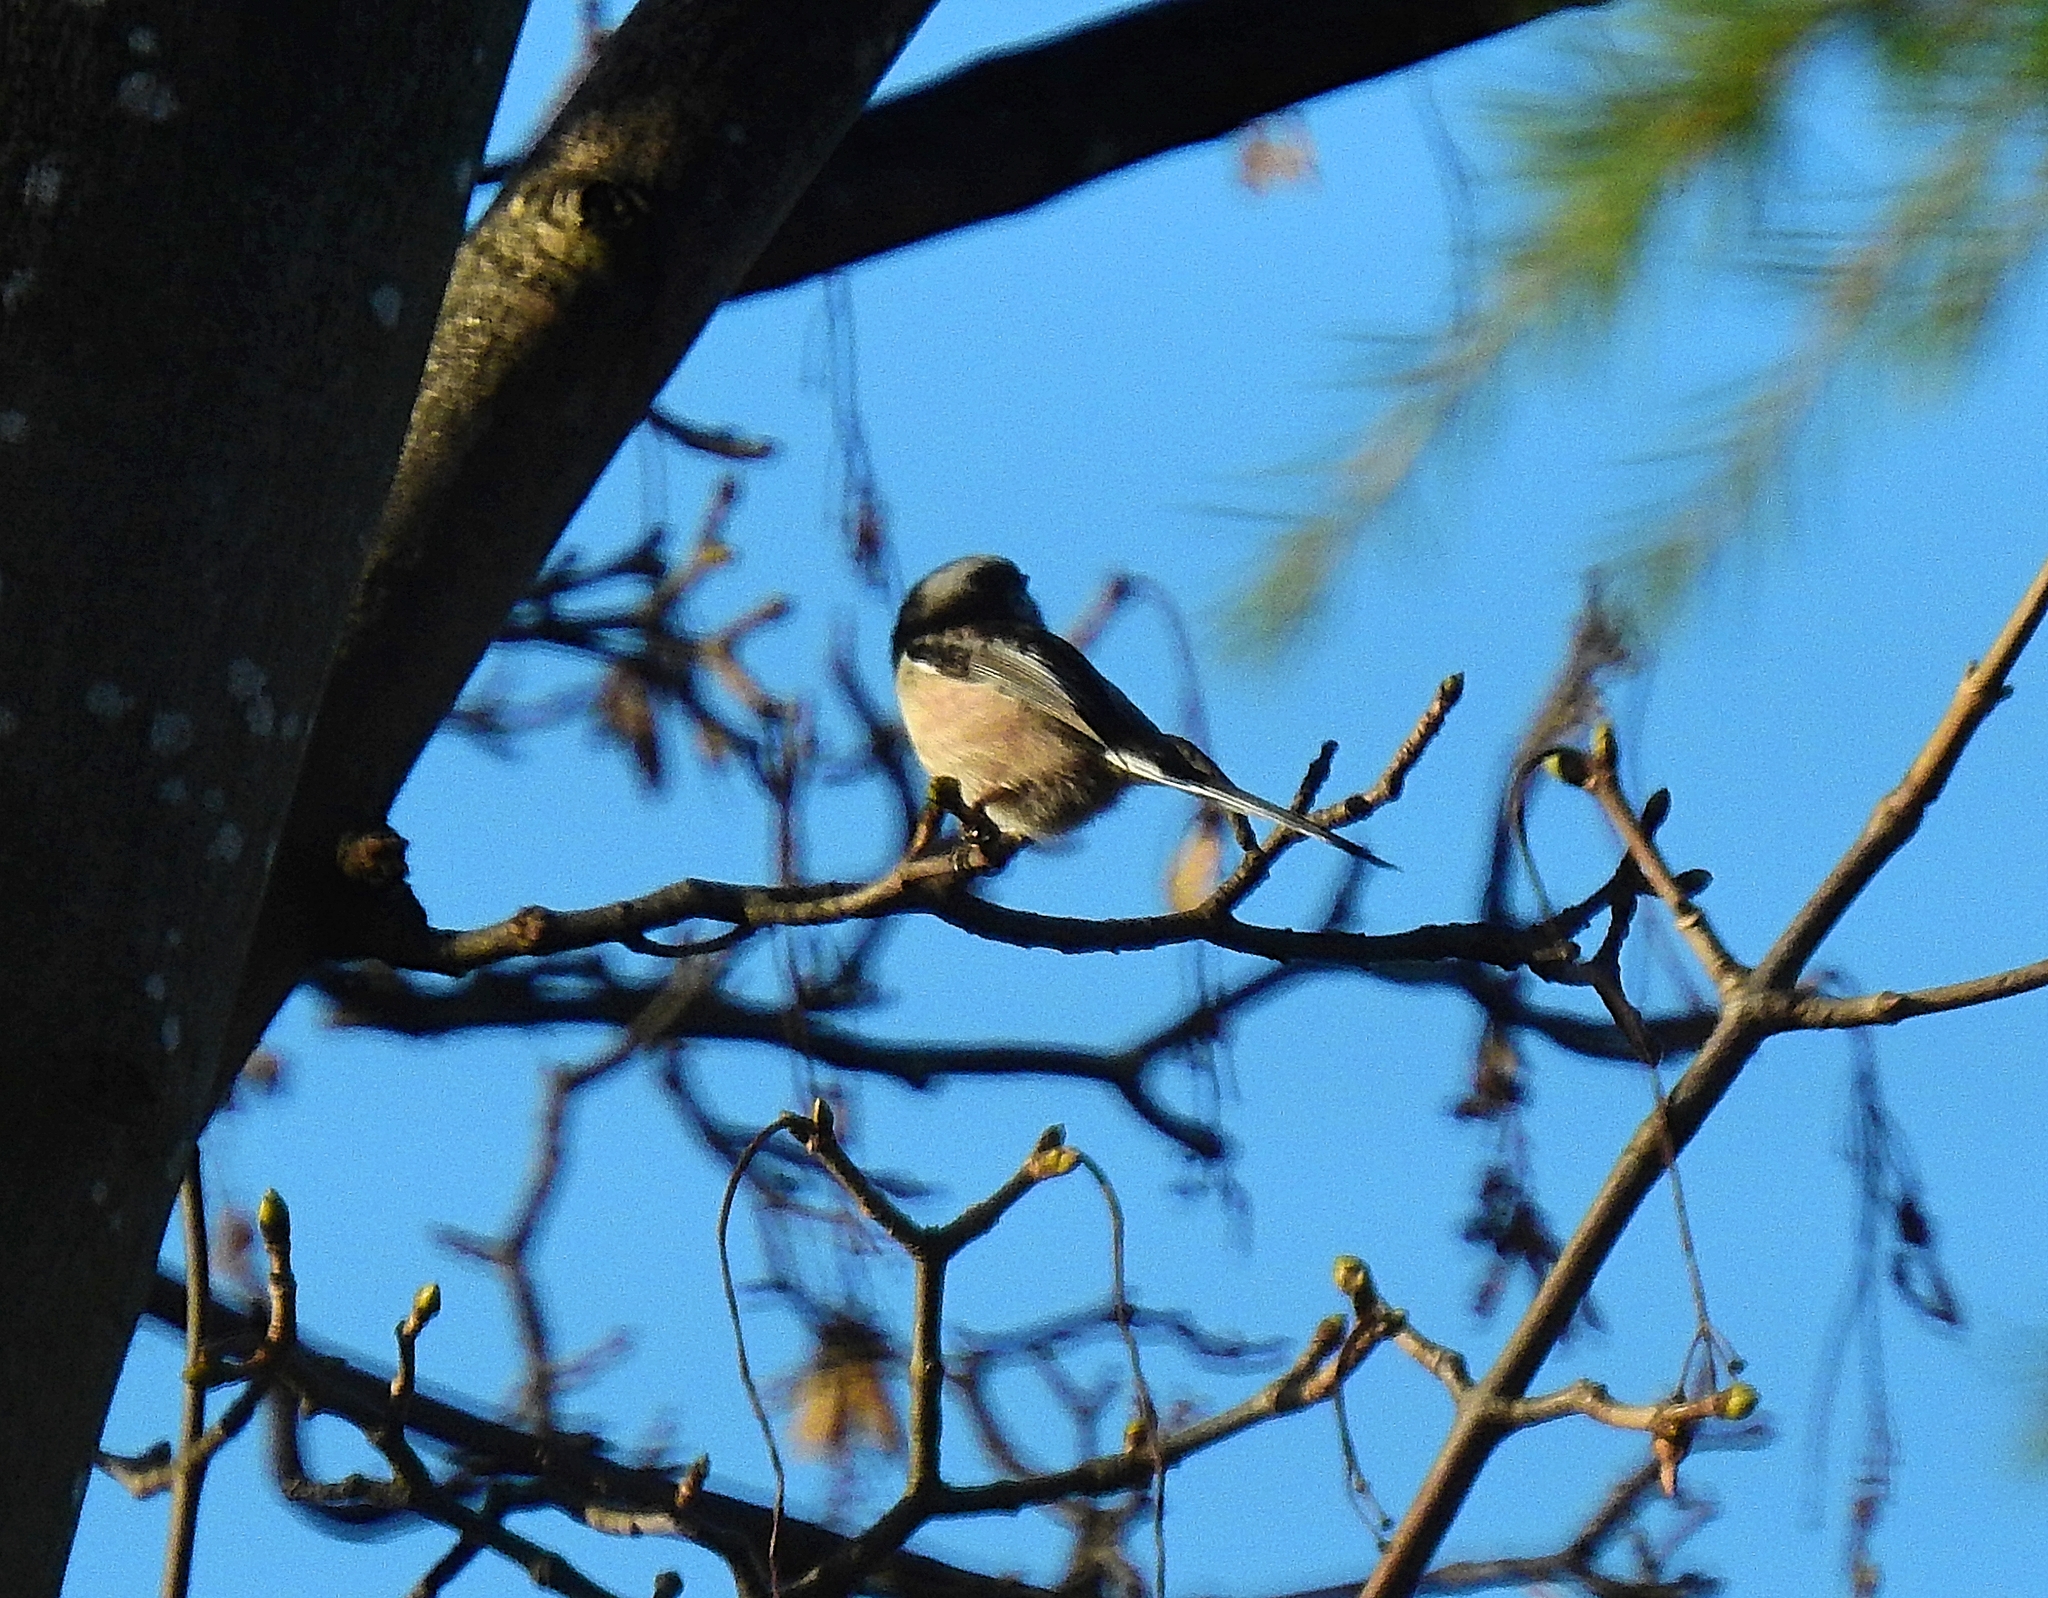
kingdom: Animalia
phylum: Chordata
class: Aves
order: Passeriformes
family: Aegithalidae
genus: Aegithalos
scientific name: Aegithalos caudatus
